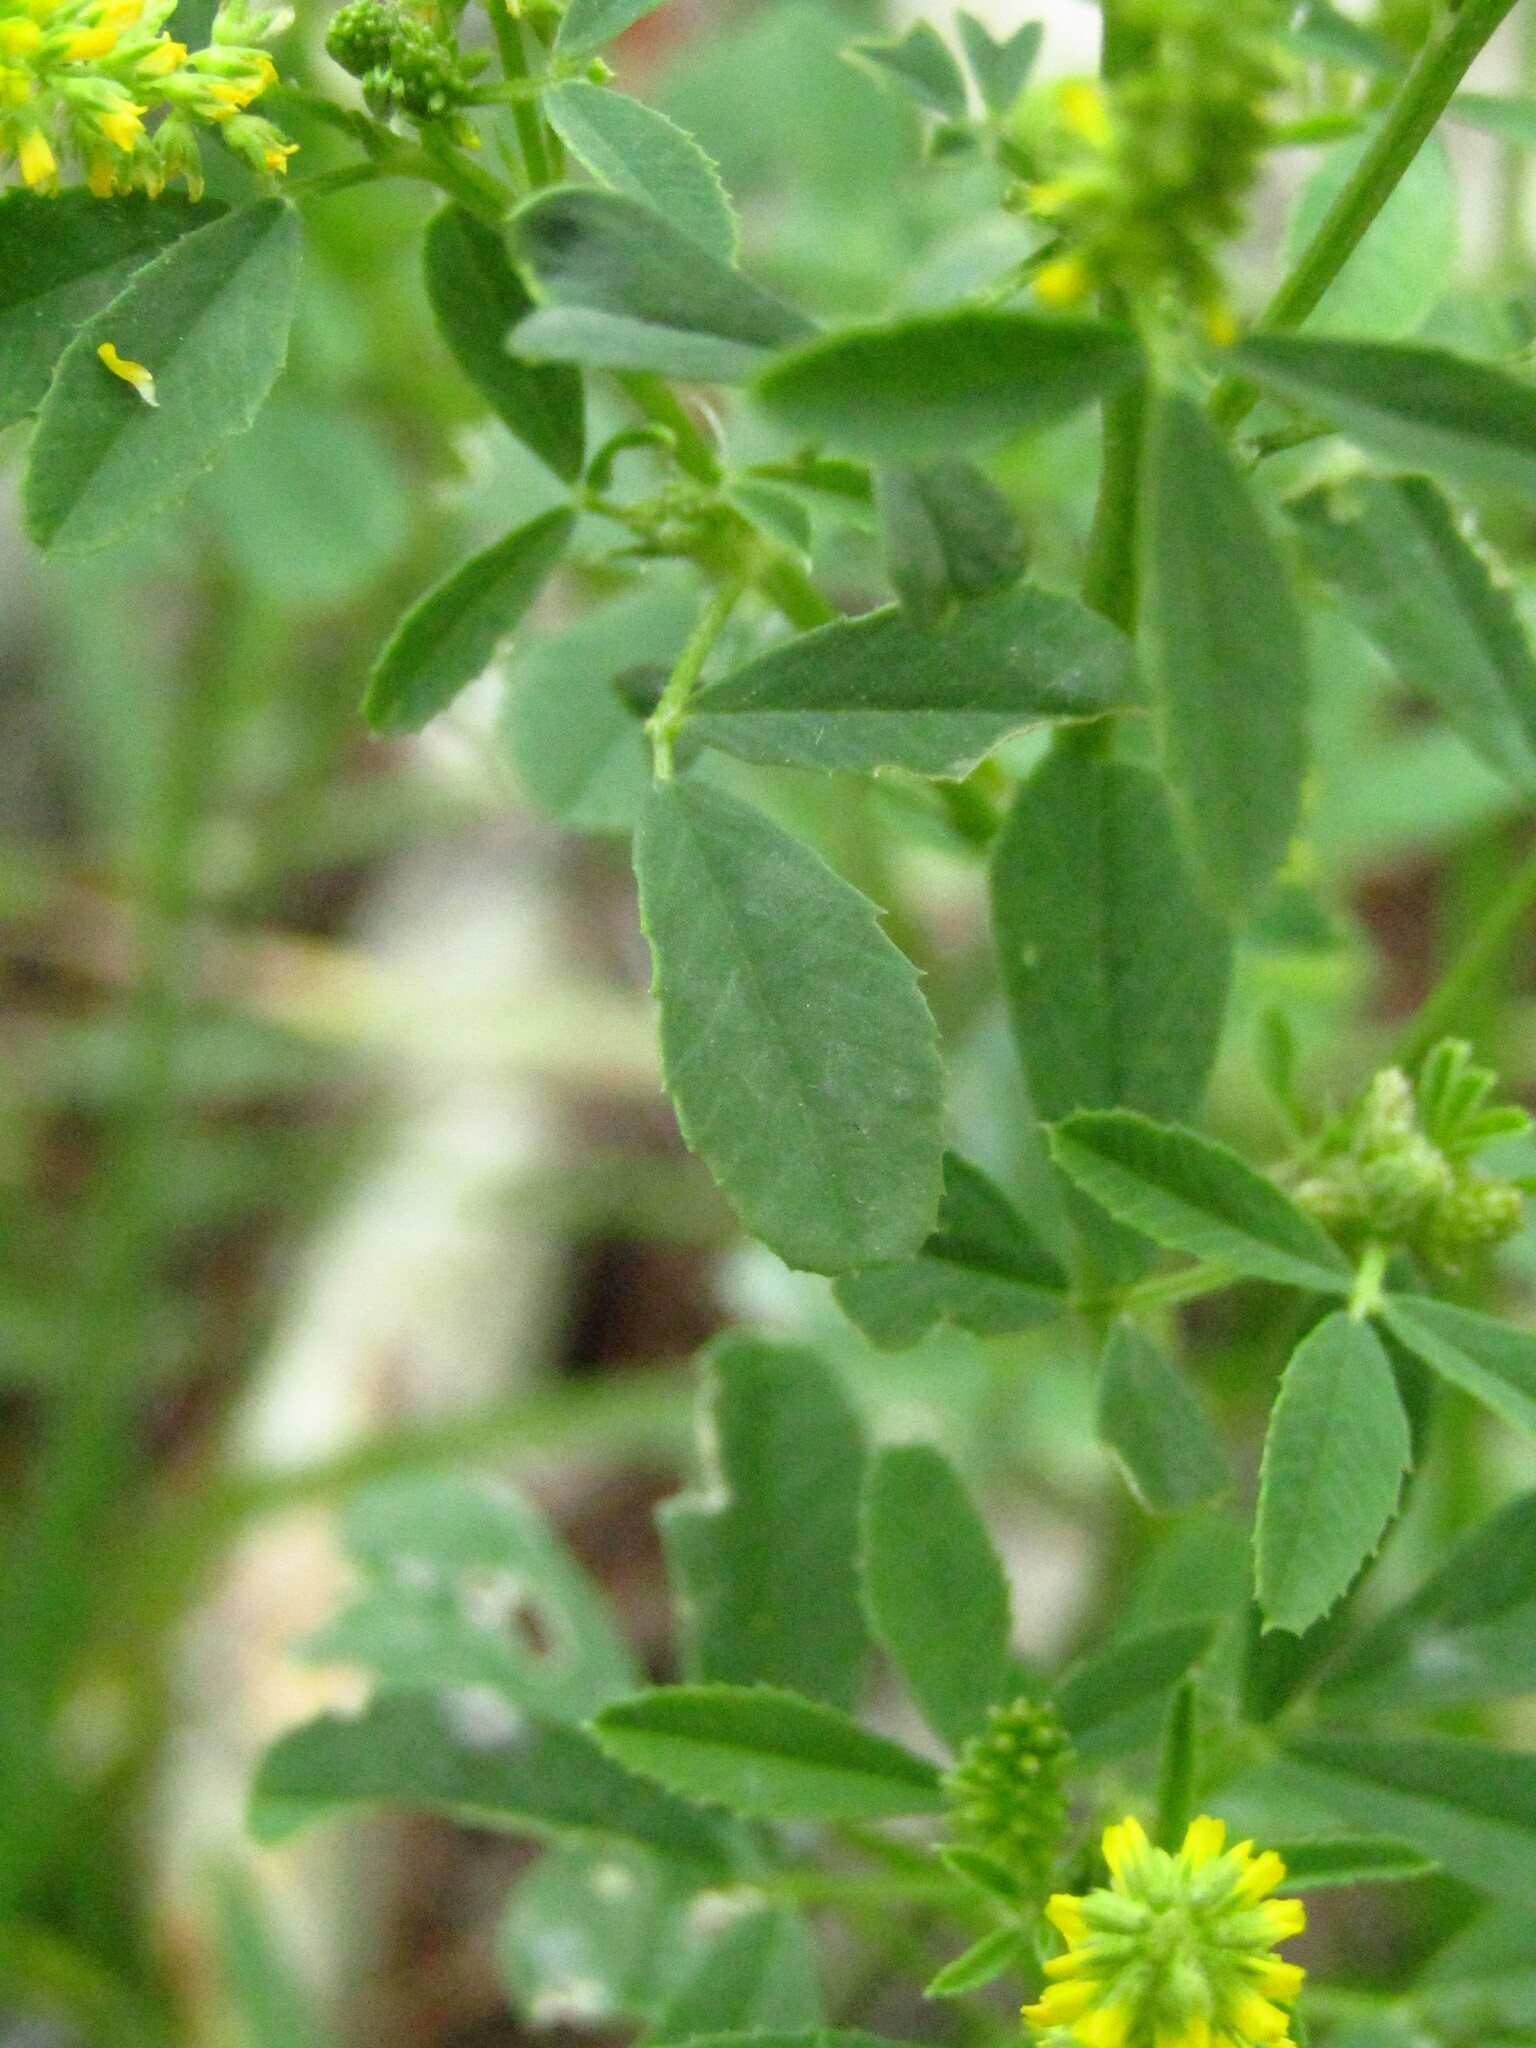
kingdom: Plantae
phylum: Tracheophyta
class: Magnoliopsida
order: Fabales
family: Fabaceae
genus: Melilotus
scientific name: Melilotus indicus
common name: Small melilot
